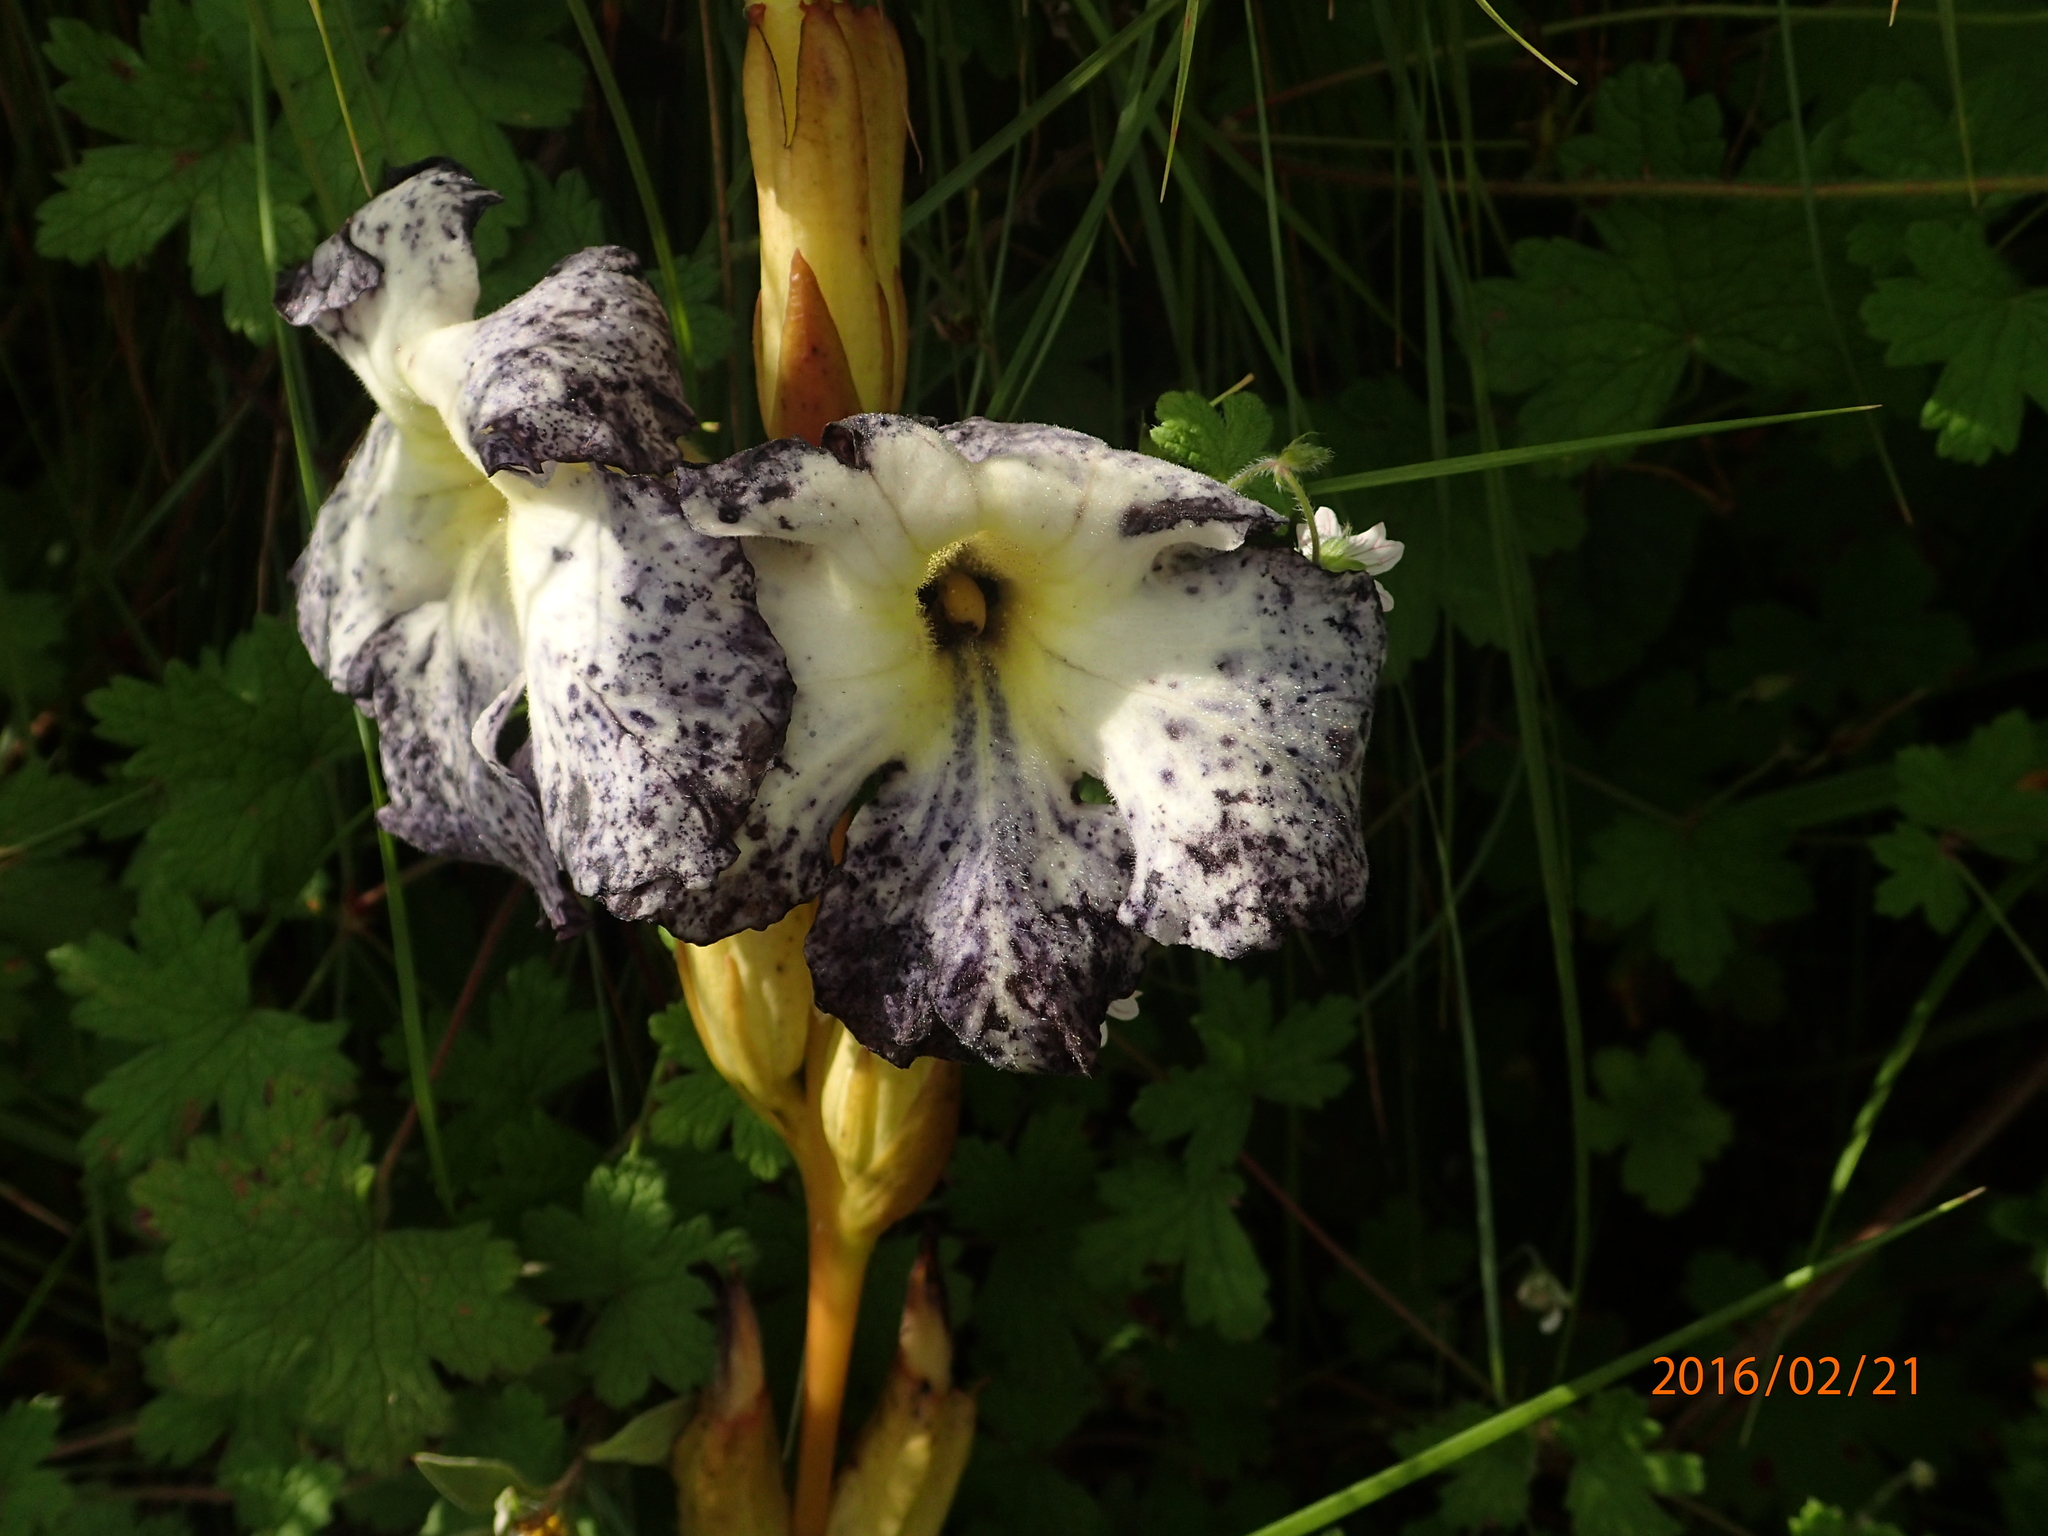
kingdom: Plantae
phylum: Tracheophyta
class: Magnoliopsida
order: Lamiales
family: Orobanchaceae
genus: Harveya
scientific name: Harveya speciosa
